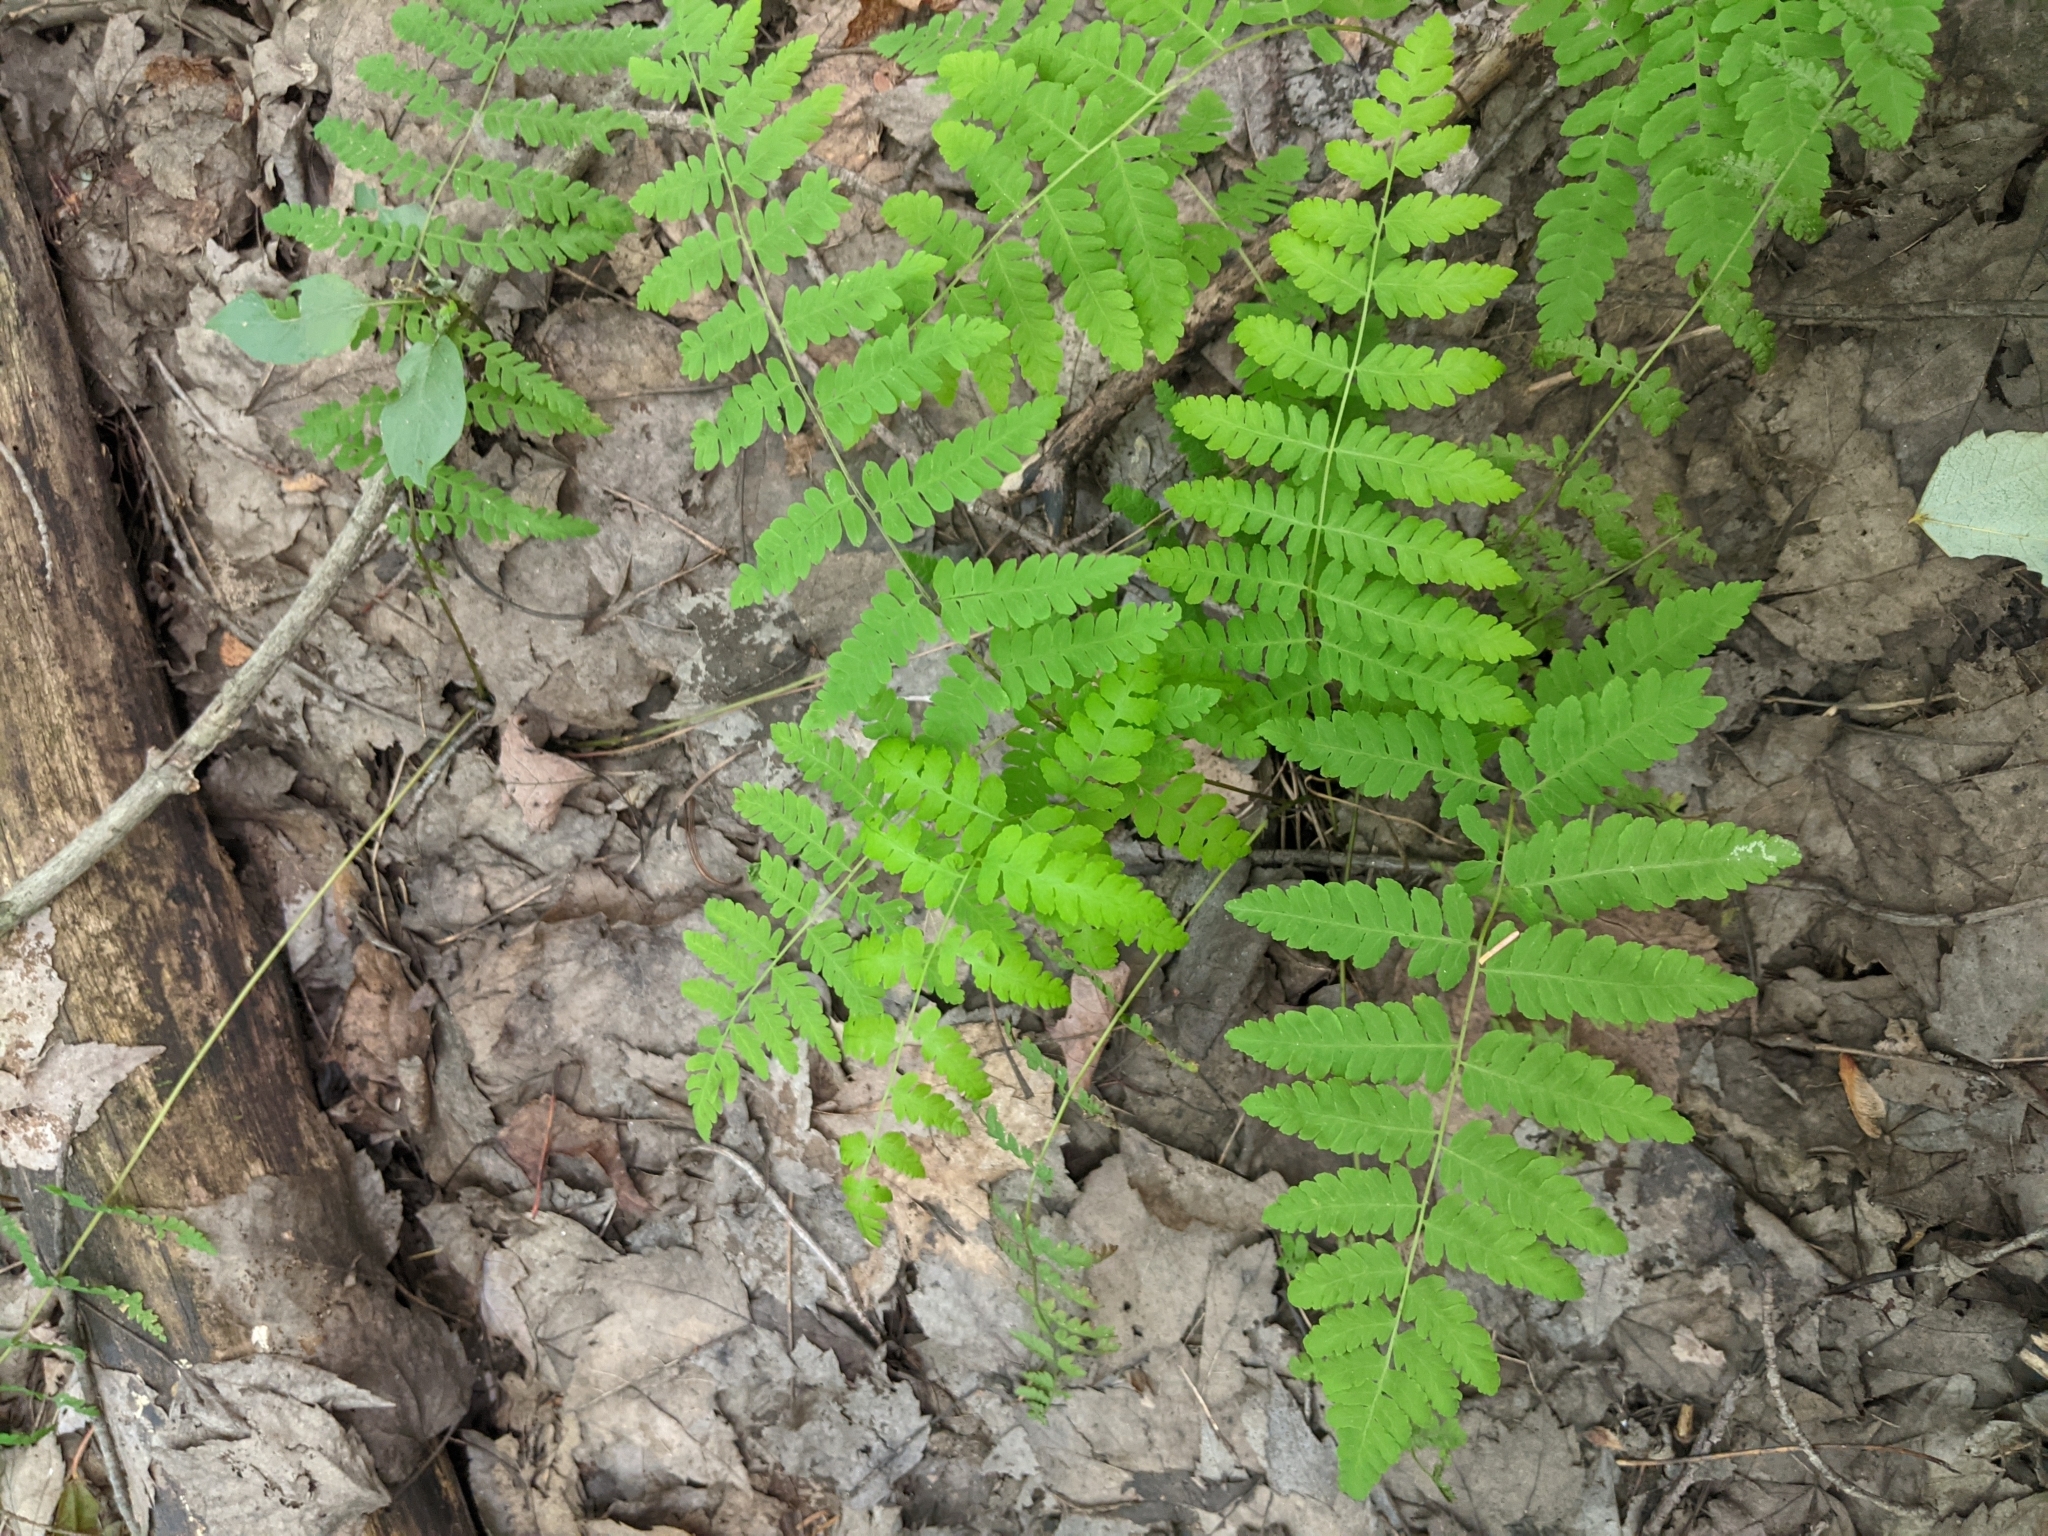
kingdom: Plantae
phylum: Tracheophyta
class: Polypodiopsida
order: Osmundales
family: Osmundaceae
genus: Claytosmunda
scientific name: Claytosmunda claytoniana
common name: Clayton's fern
